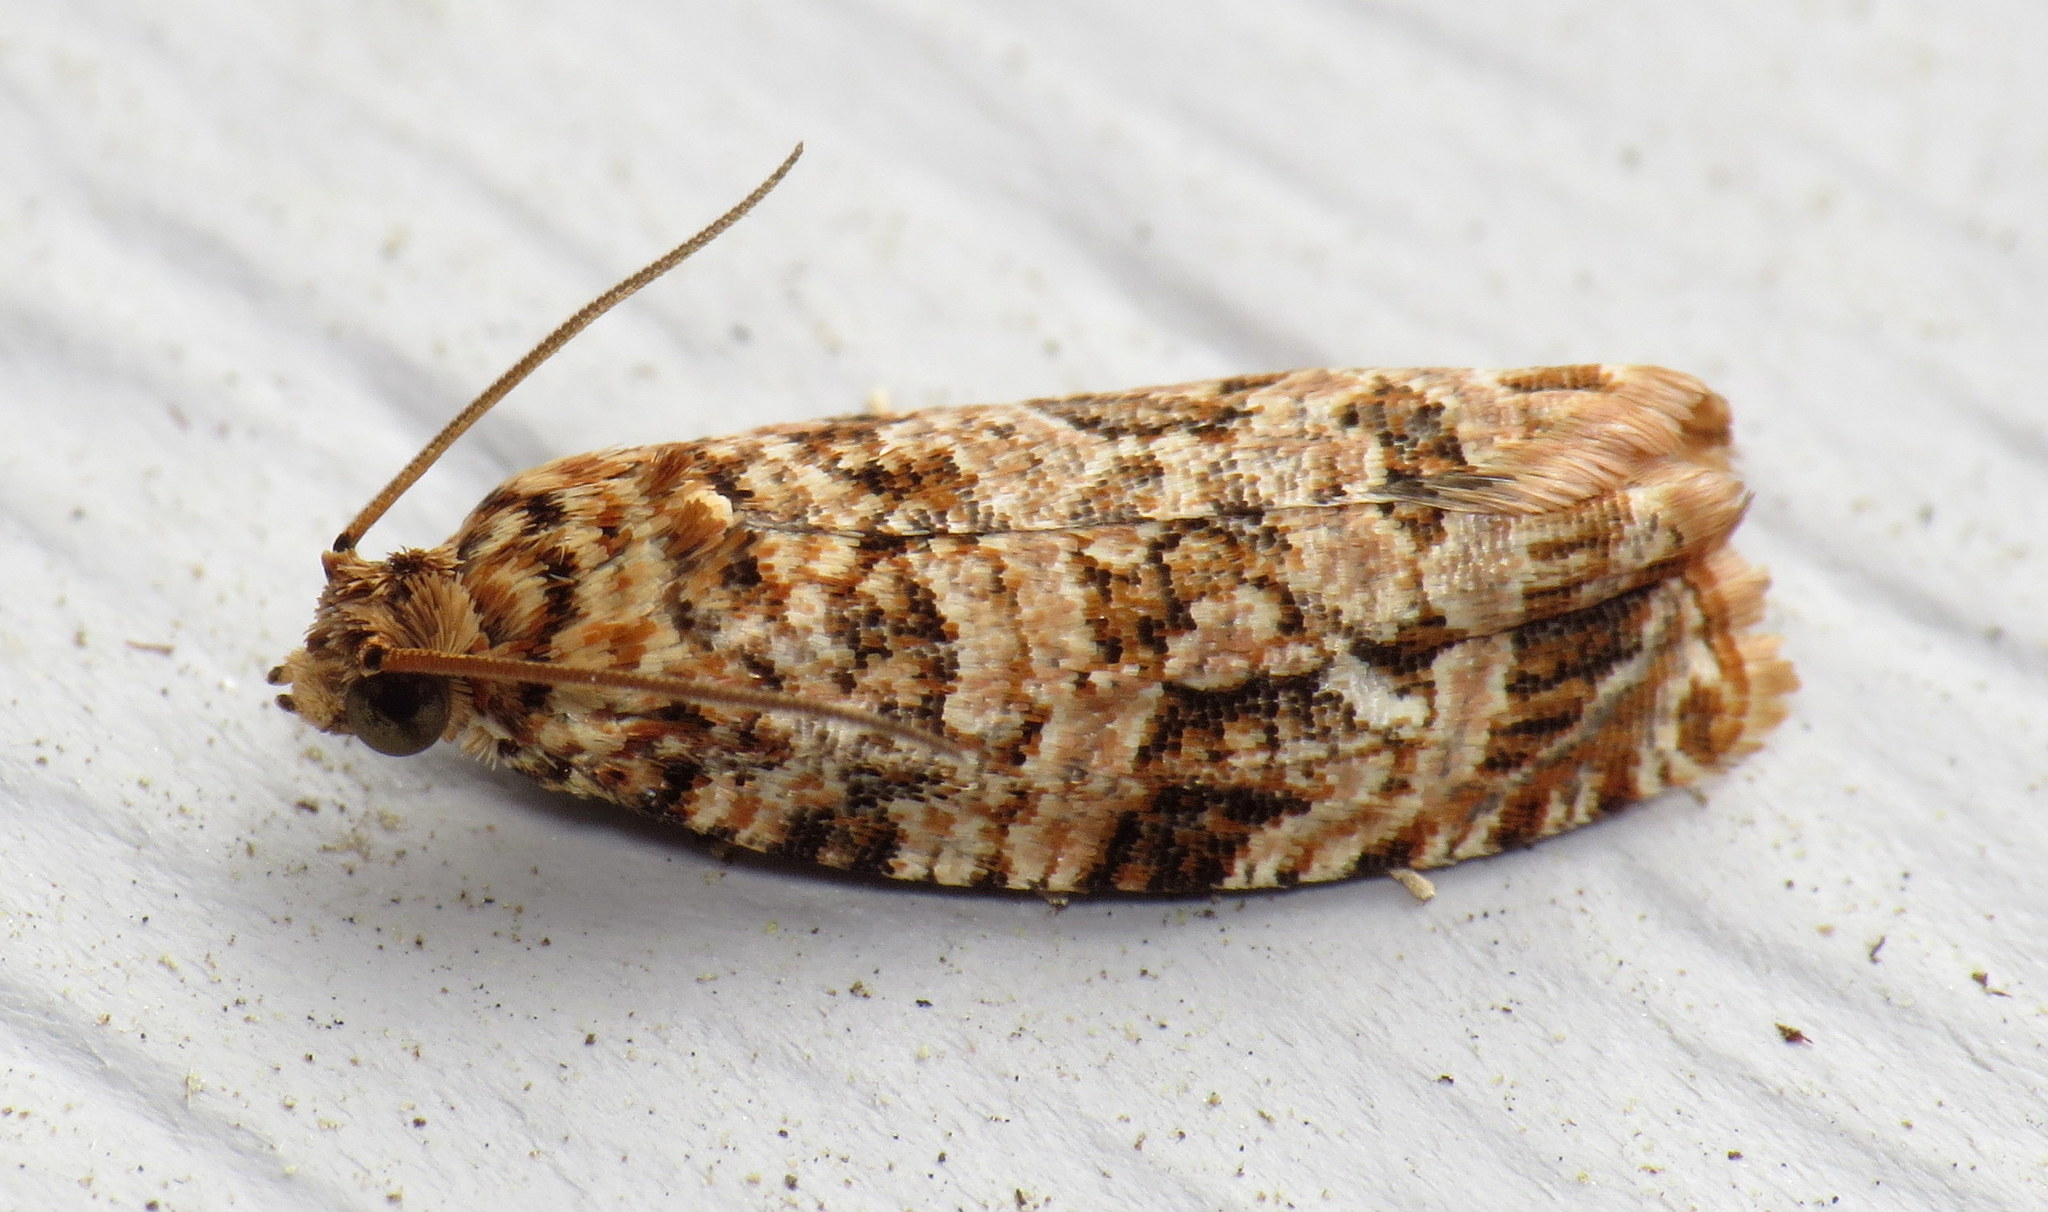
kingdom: Animalia
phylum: Arthropoda
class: Insecta
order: Lepidoptera
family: Tortricidae
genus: Phaecasiophora
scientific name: Phaecasiophora niveiguttana
